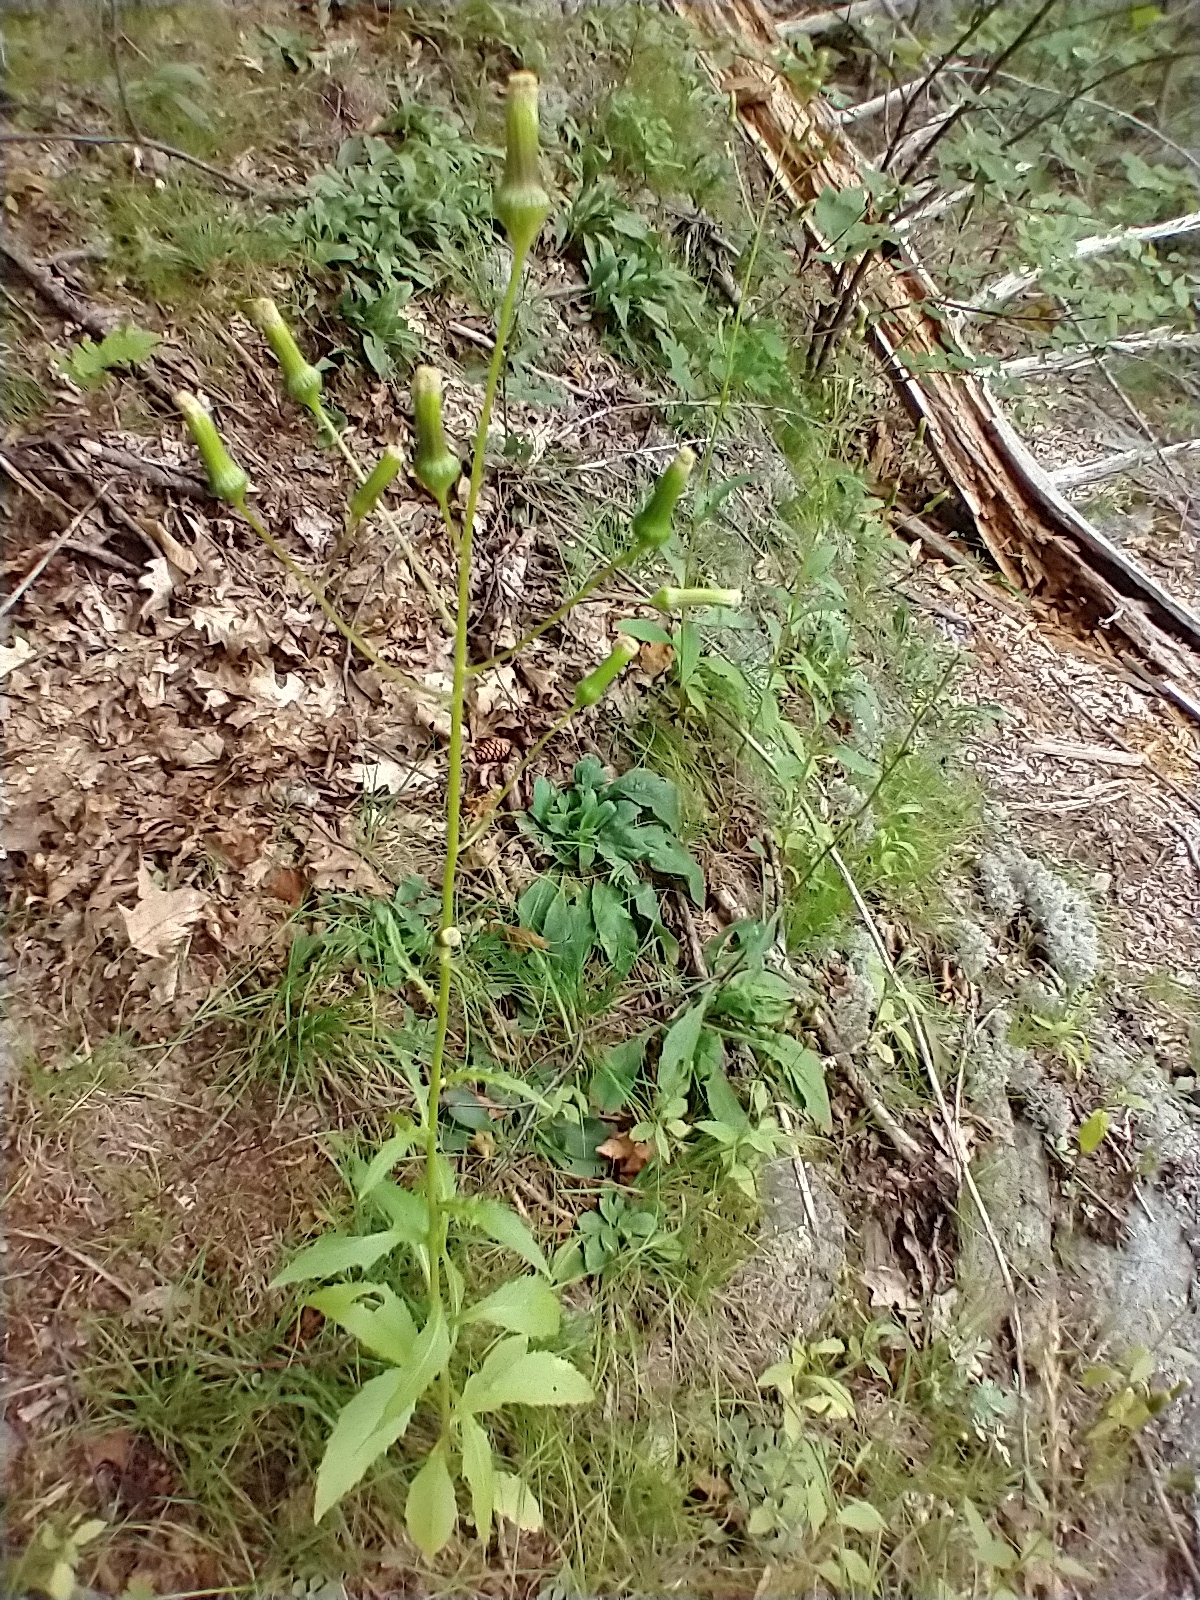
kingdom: Plantae
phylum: Tracheophyta
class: Magnoliopsida
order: Asterales
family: Asteraceae
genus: Erechtites
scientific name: Erechtites hieraciifolius
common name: American burnweed
